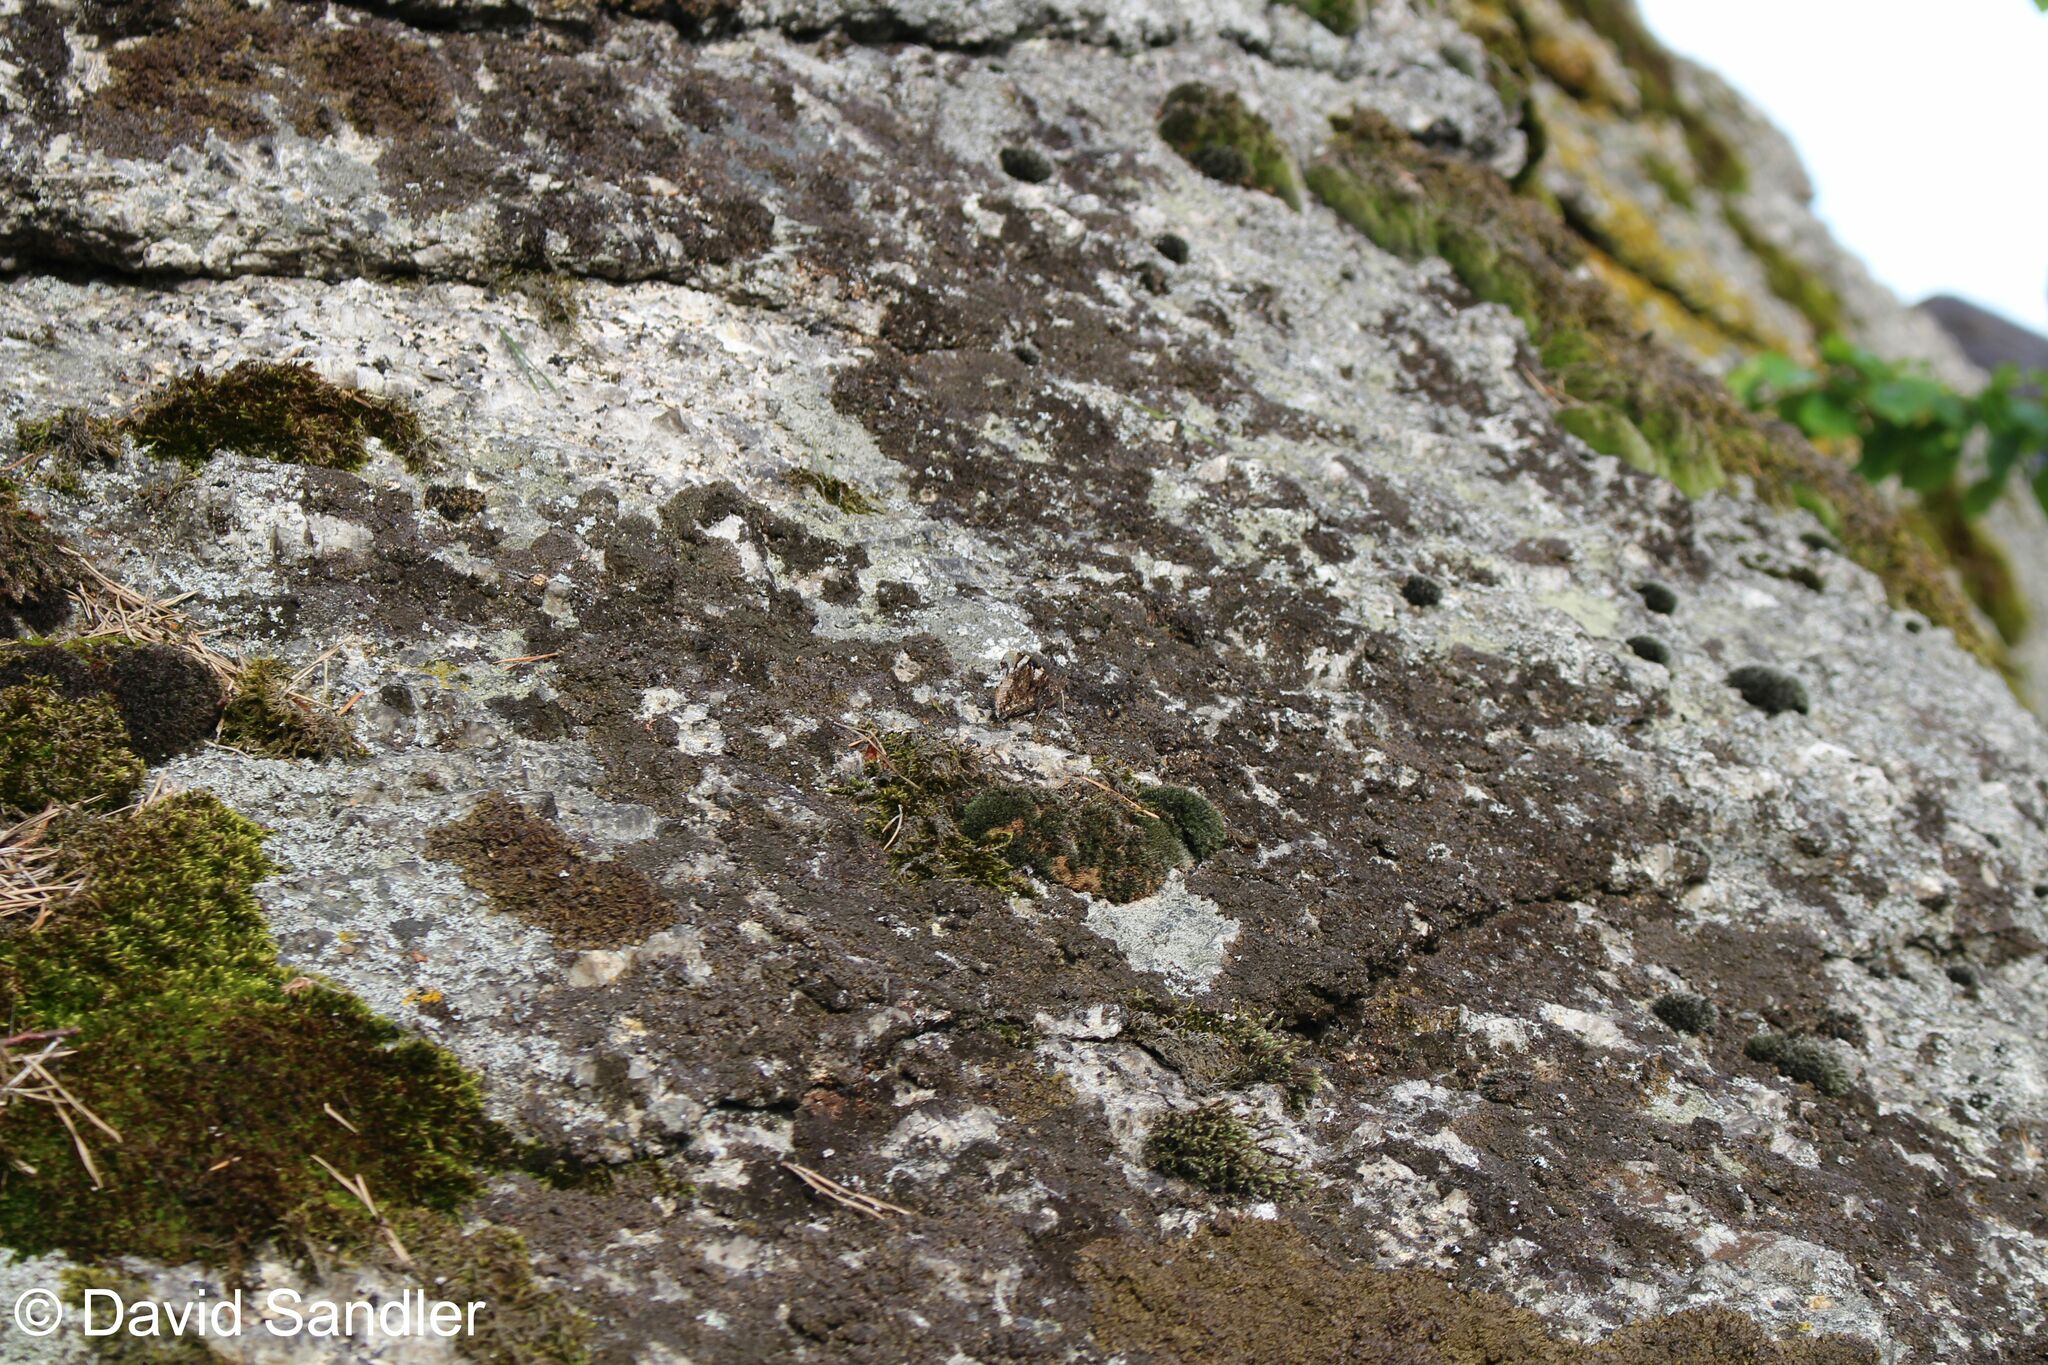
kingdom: Animalia
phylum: Arthropoda
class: Insecta
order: Lepidoptera
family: Nymphalidae
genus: Vanessa
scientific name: Vanessa atalanta
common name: Red admiral
